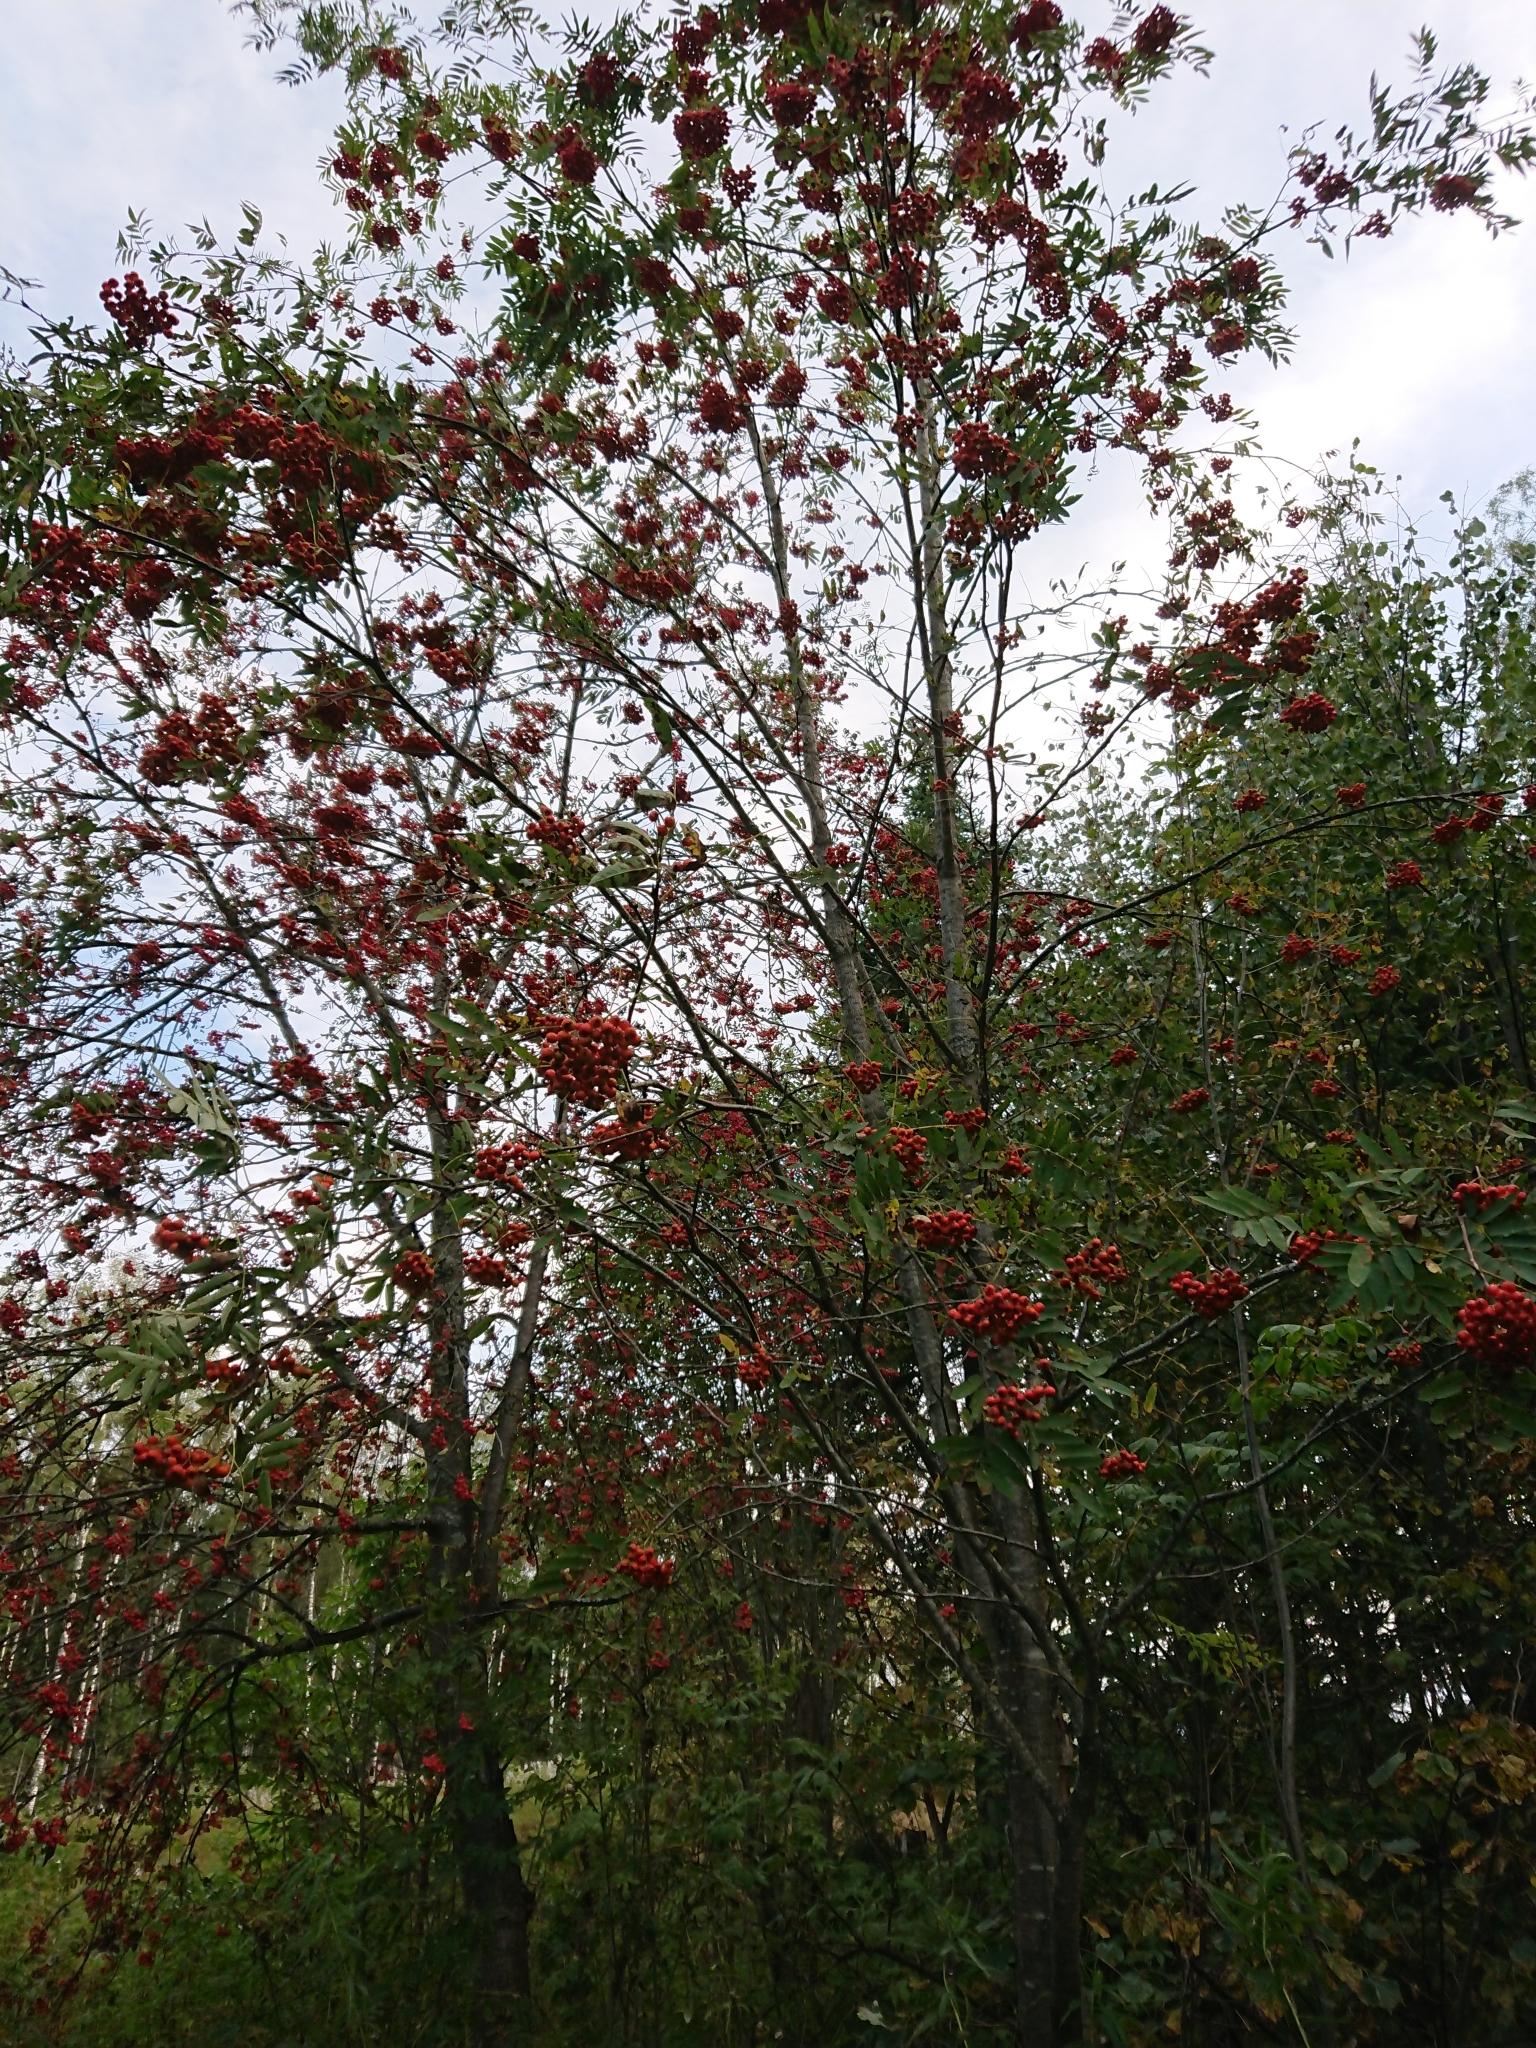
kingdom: Plantae
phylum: Tracheophyta
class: Magnoliopsida
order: Rosales
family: Rosaceae
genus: Sorbus
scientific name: Sorbus aucuparia
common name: Rowan
